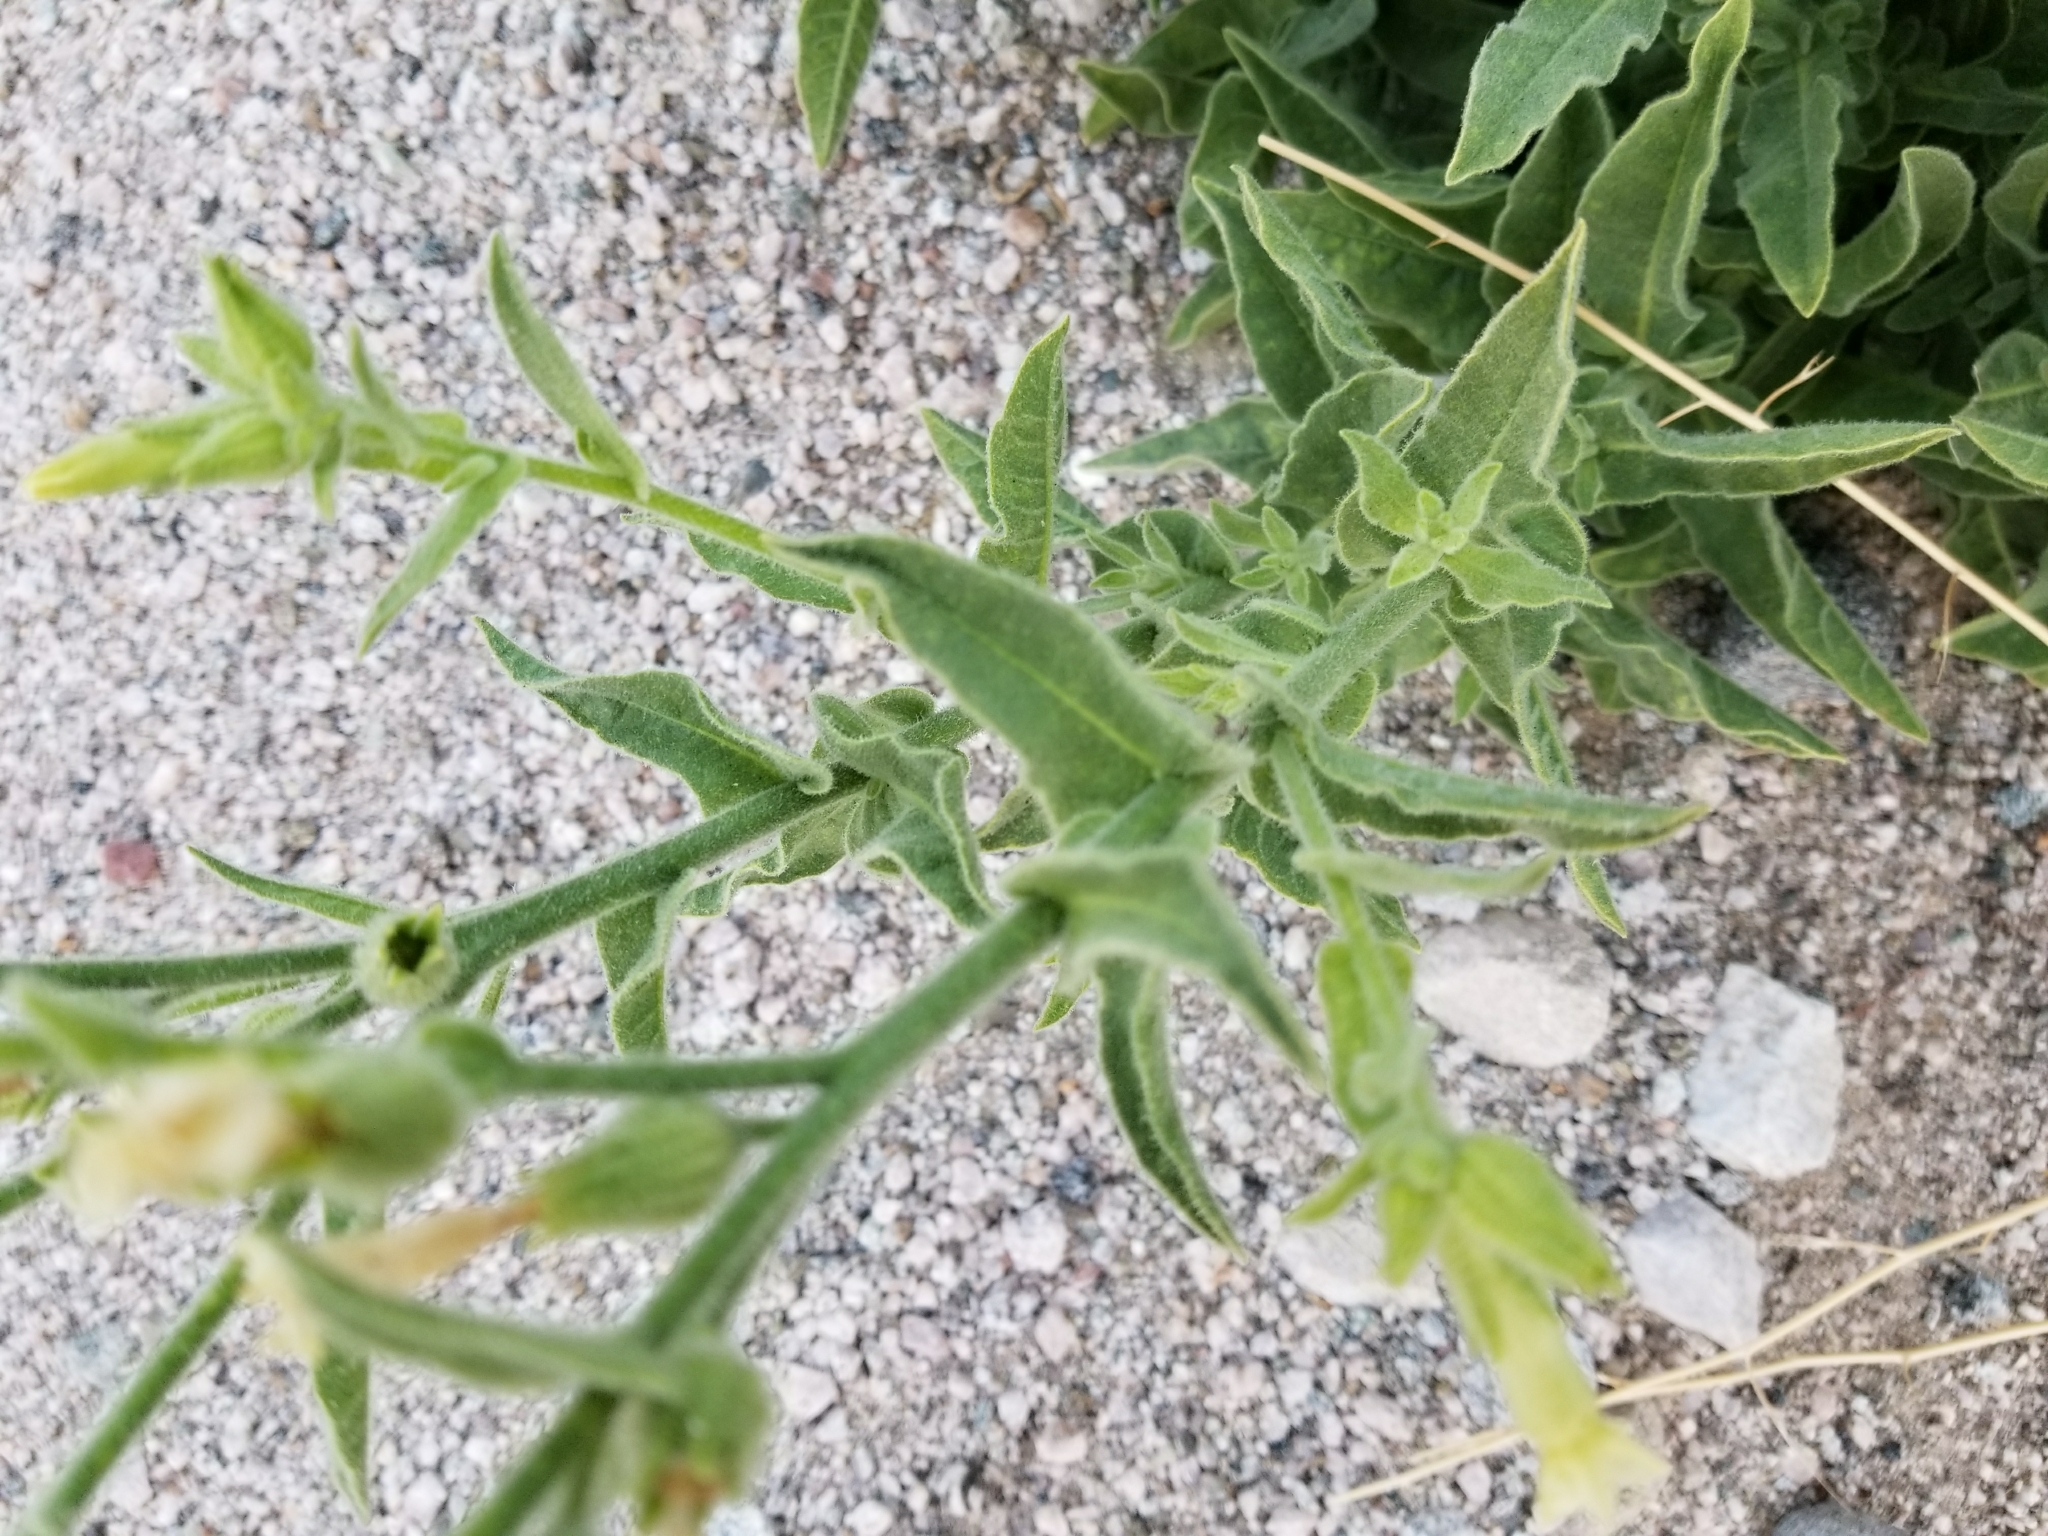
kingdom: Plantae
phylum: Tracheophyta
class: Magnoliopsida
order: Solanales
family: Solanaceae
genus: Nicotiana
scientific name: Nicotiana obtusifolia
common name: Desert tobacco
